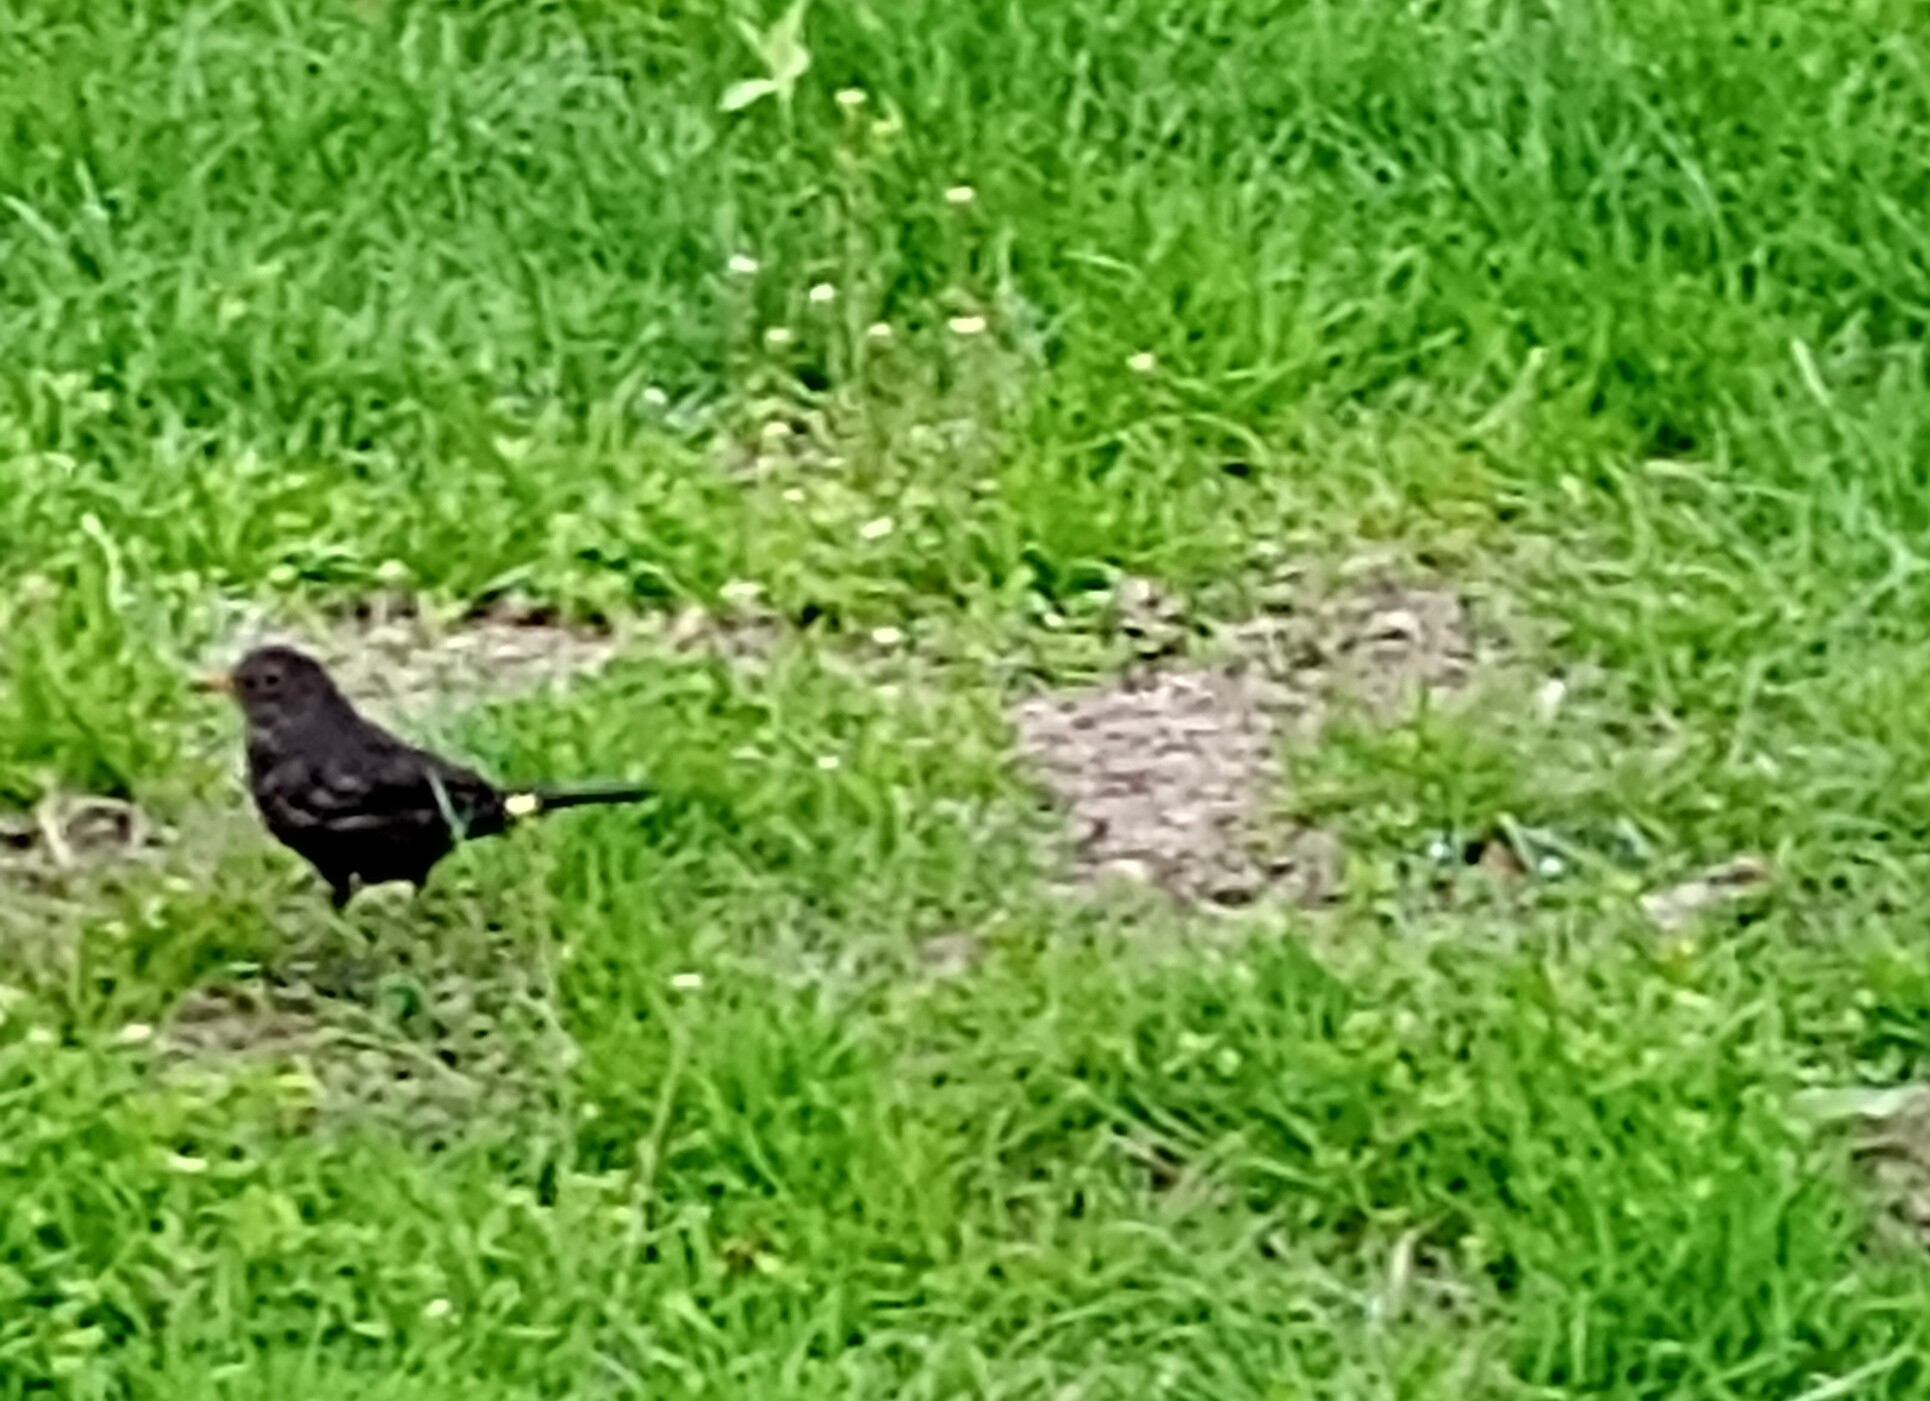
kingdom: Animalia
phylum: Chordata
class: Aves
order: Passeriformes
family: Turdidae
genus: Turdus
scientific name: Turdus merula
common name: Common blackbird
